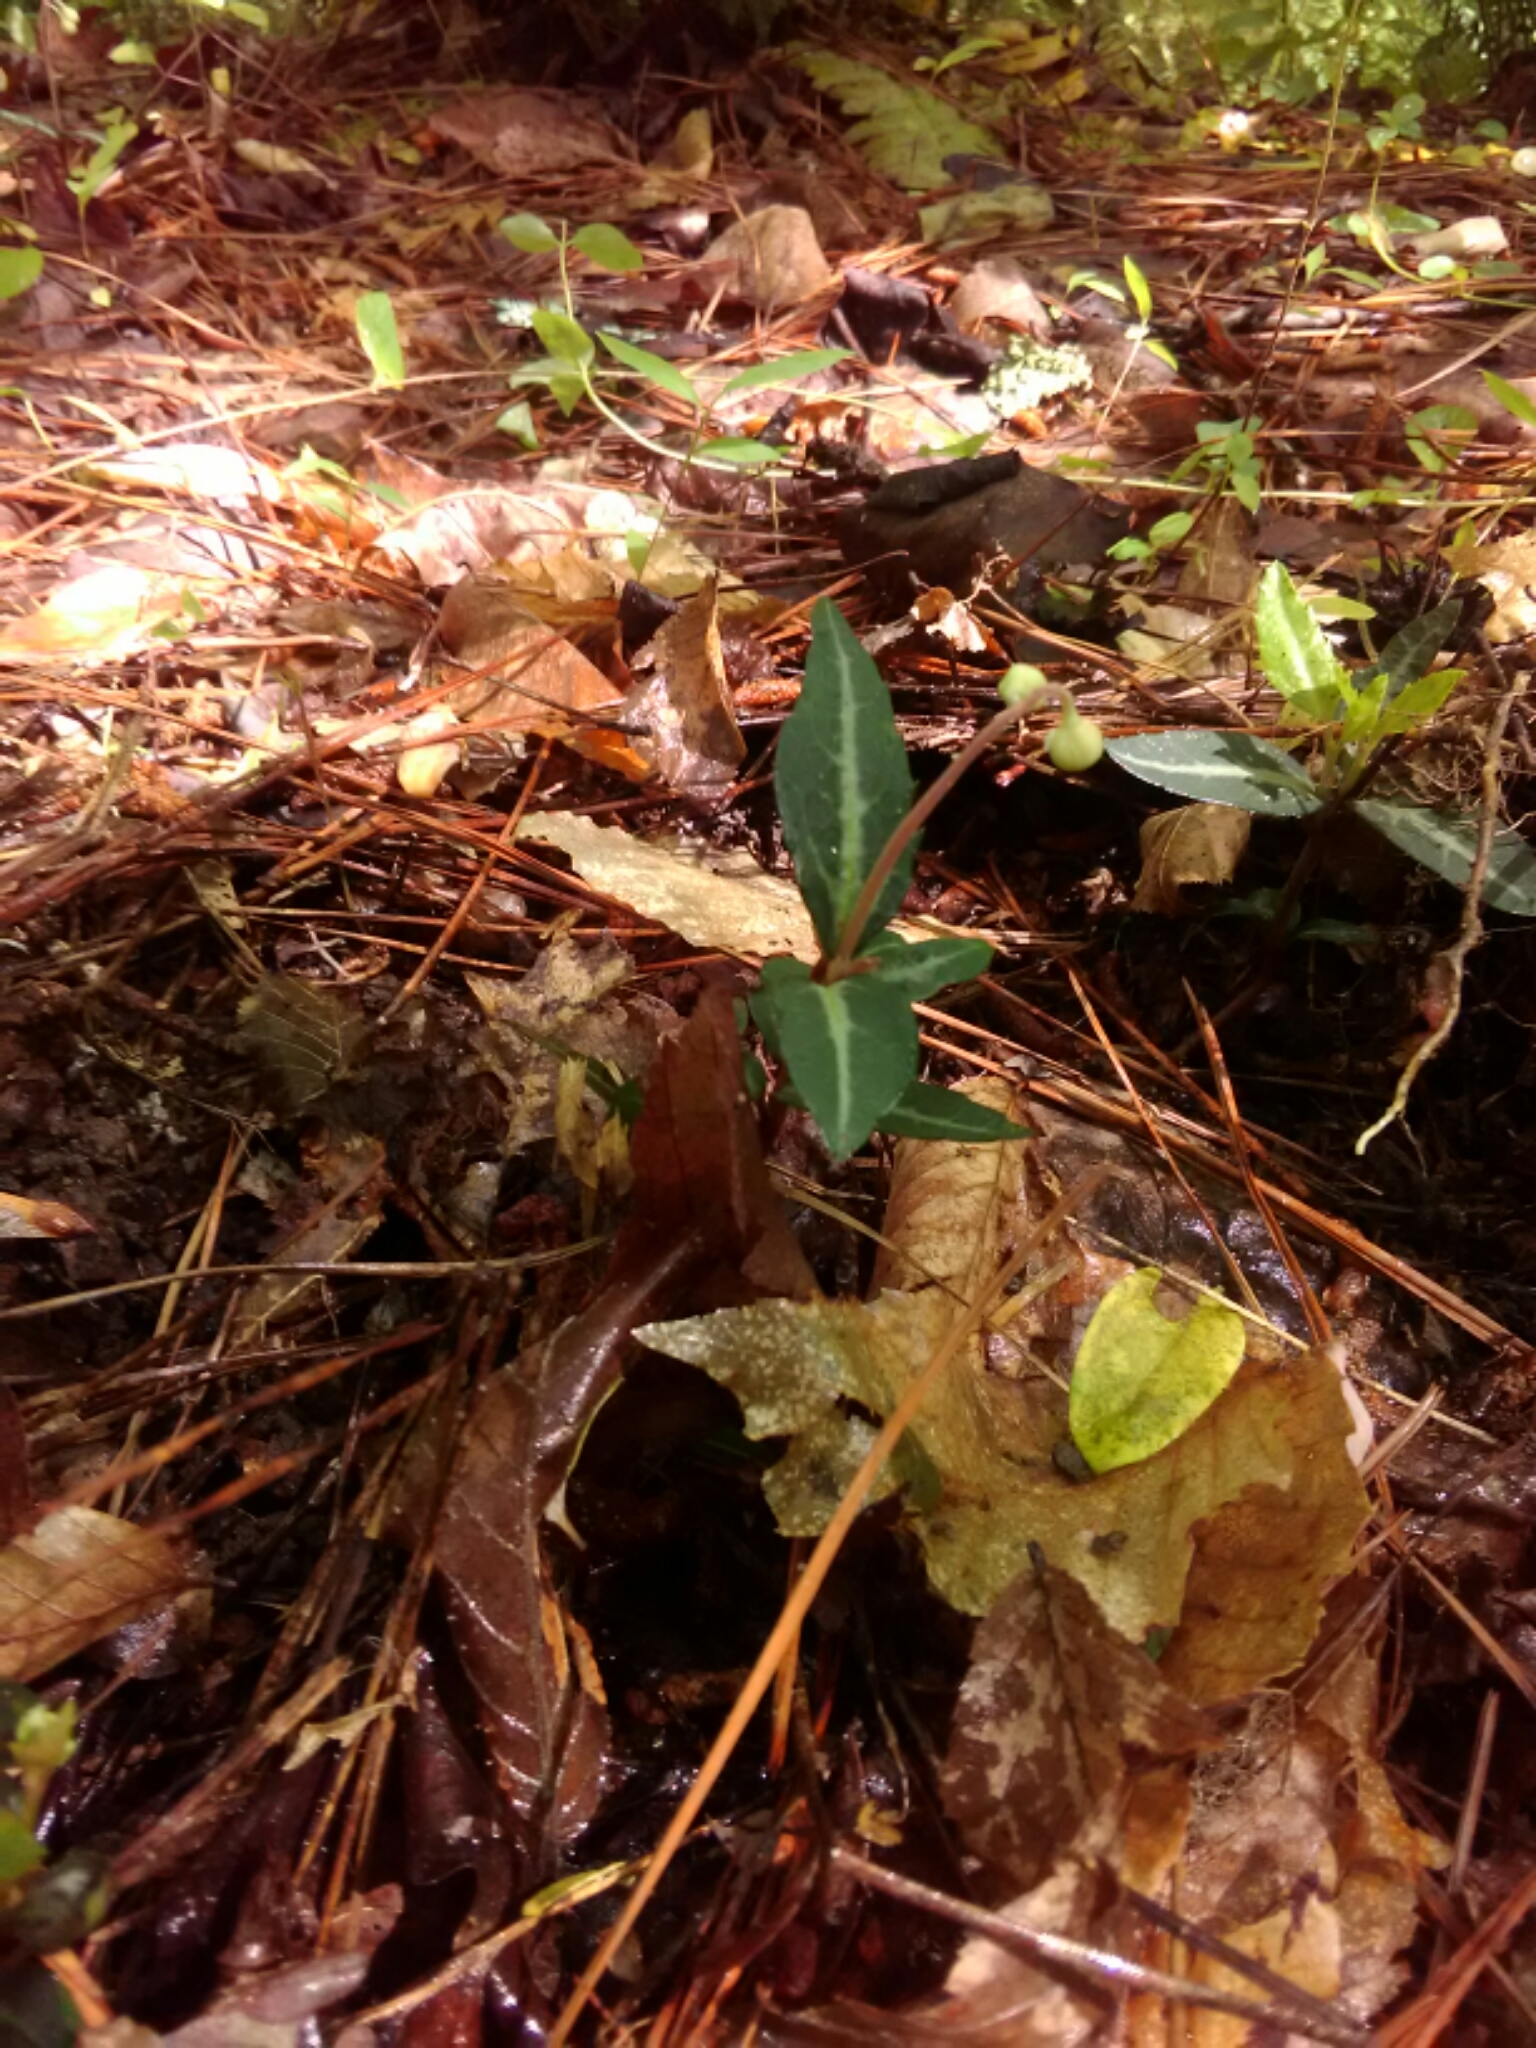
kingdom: Plantae
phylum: Tracheophyta
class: Magnoliopsida
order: Ericales
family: Ericaceae
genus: Chimaphila
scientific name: Chimaphila maculata
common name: Spotted pipsissewa
